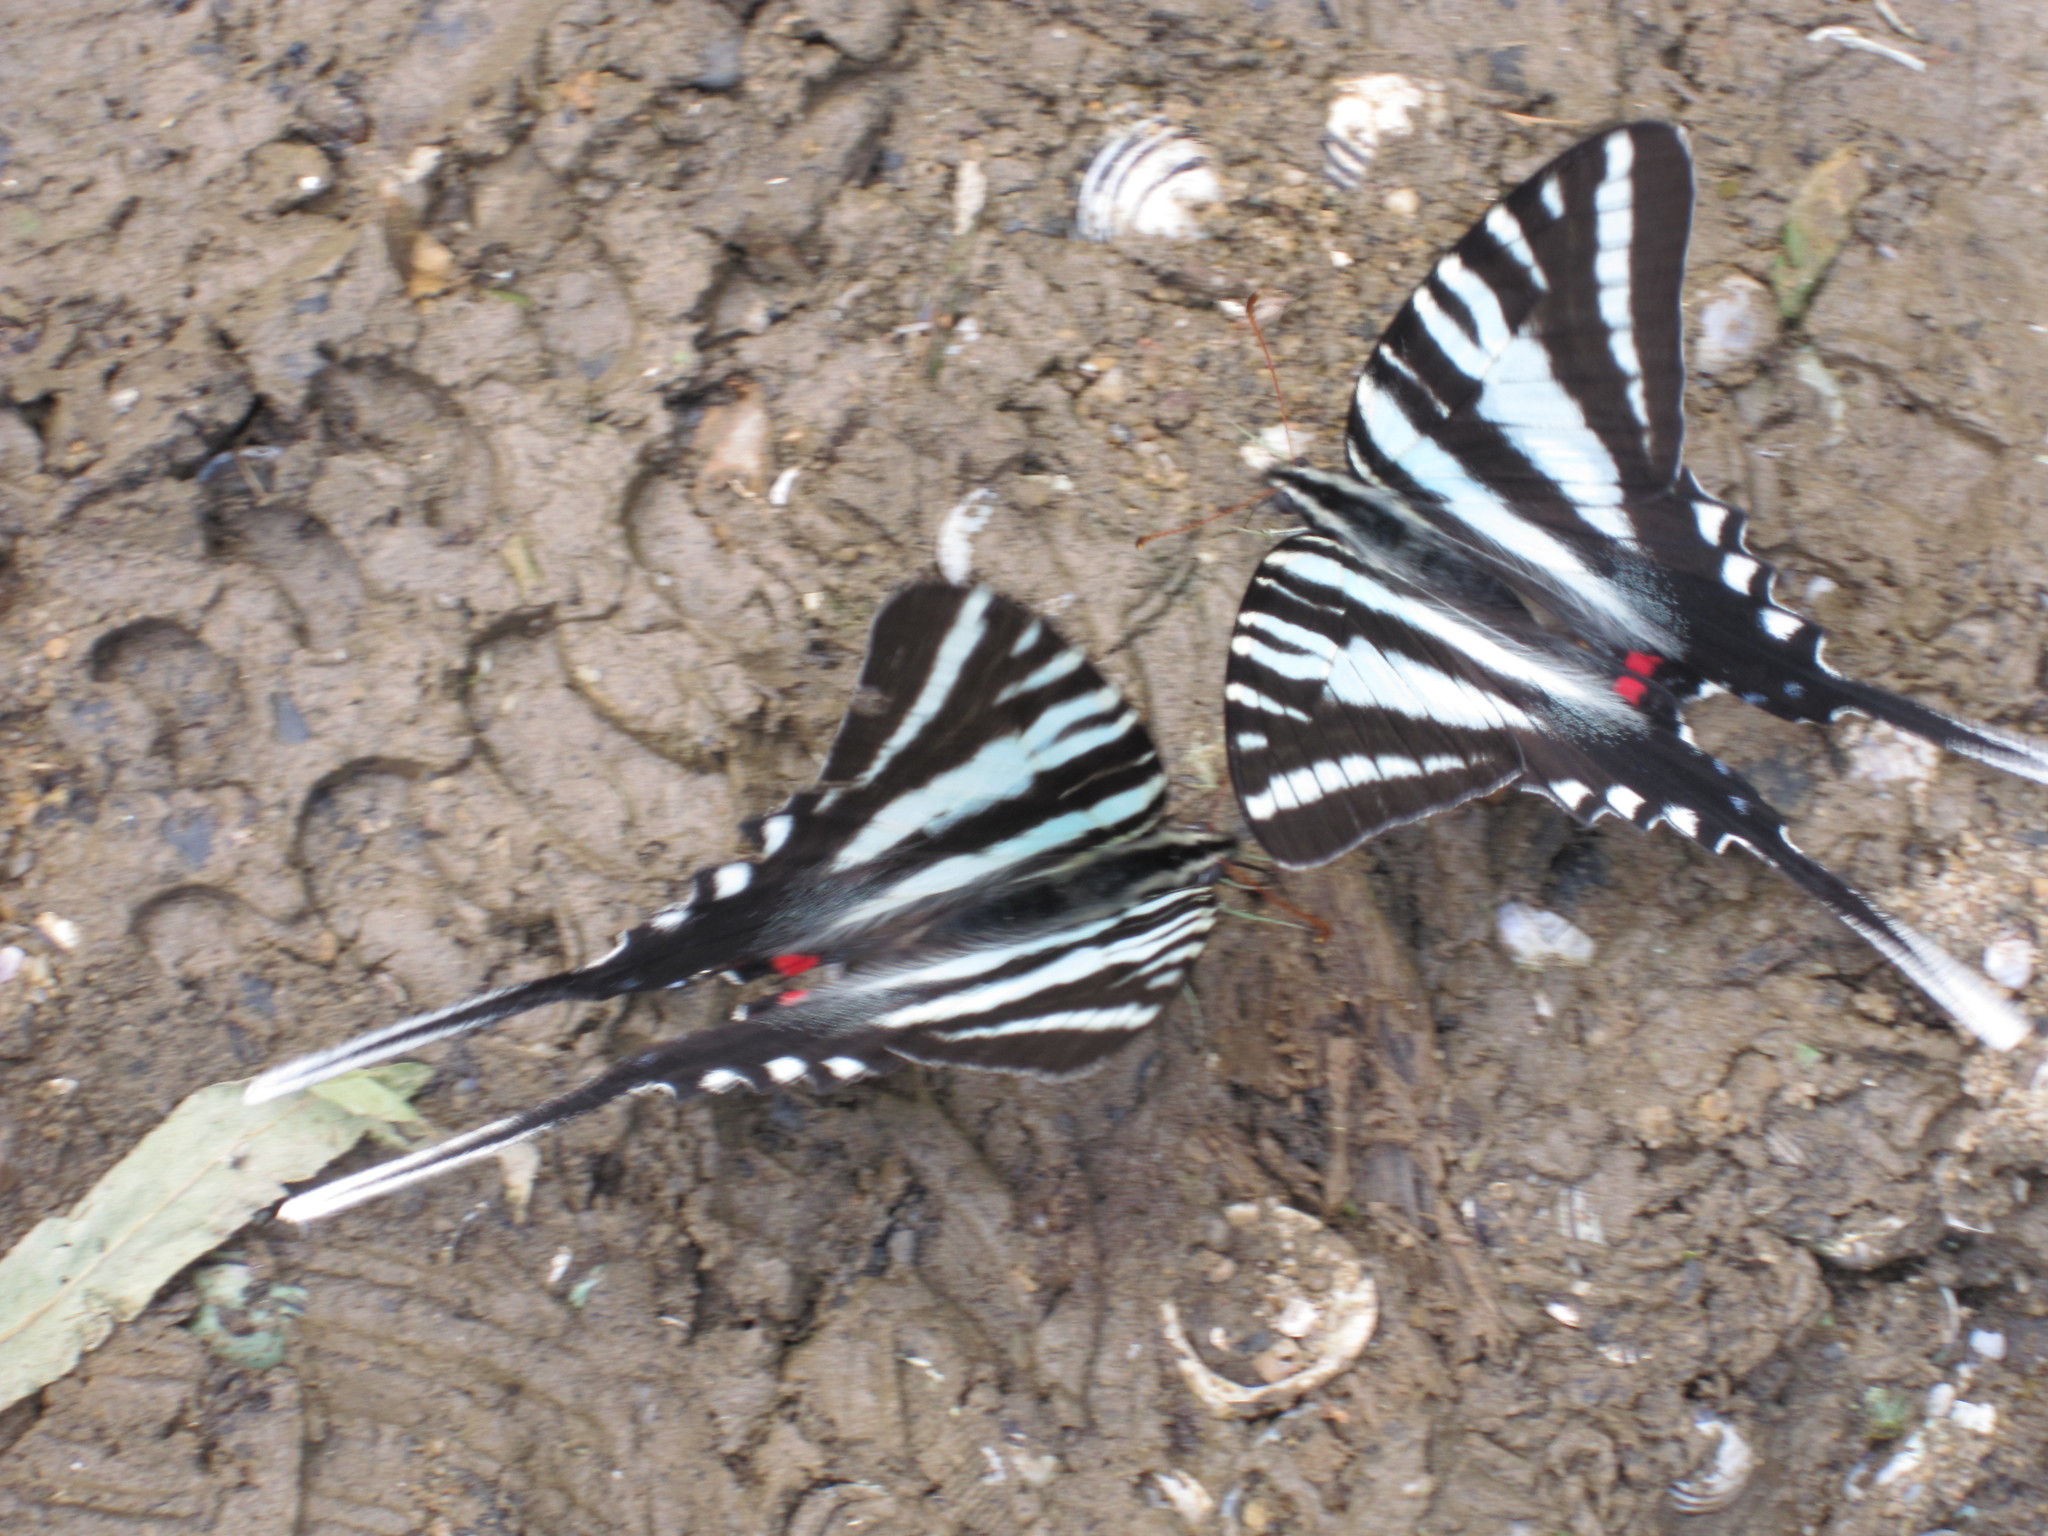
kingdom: Animalia
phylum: Arthropoda
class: Insecta
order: Lepidoptera
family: Papilionidae
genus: Protographium
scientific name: Protographium marcellus
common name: Zebra swallowtail
